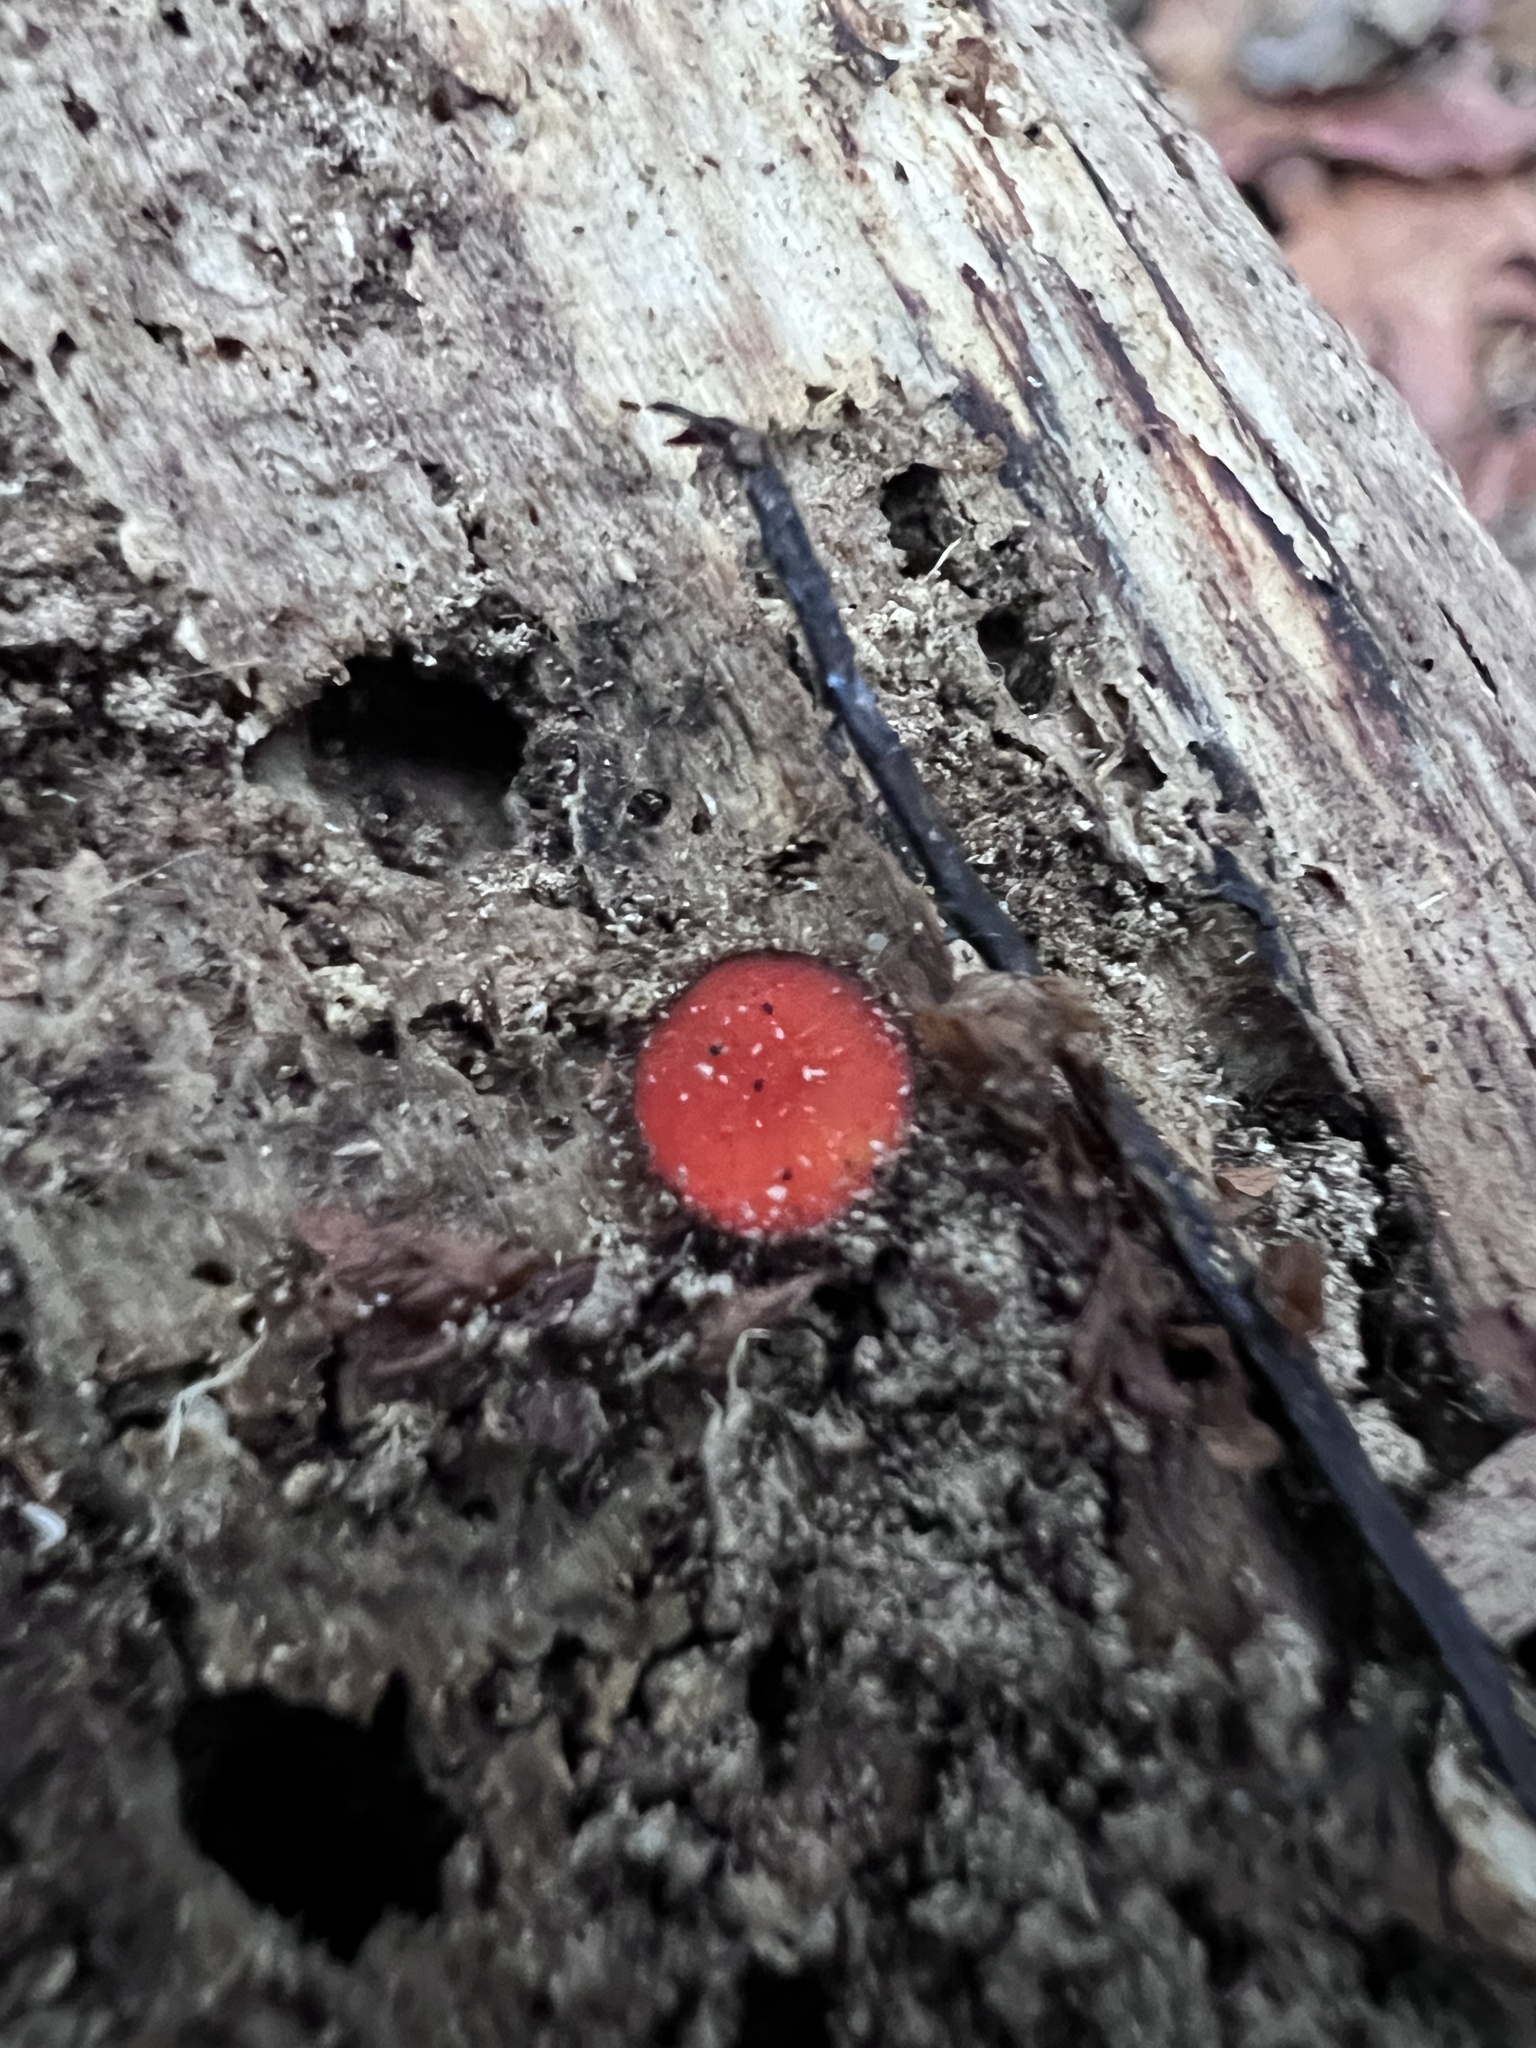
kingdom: Fungi
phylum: Ascomycota
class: Pezizomycetes
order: Pezizales
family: Pyronemataceae
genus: Scutellinia
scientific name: Scutellinia
